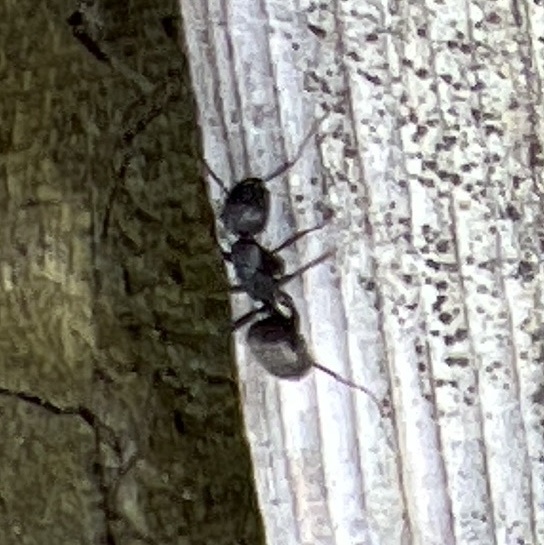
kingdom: Animalia
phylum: Arthropoda
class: Insecta
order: Hymenoptera
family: Formicidae
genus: Camponotus
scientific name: Camponotus pennsylvanicus
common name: Black carpenter ant
